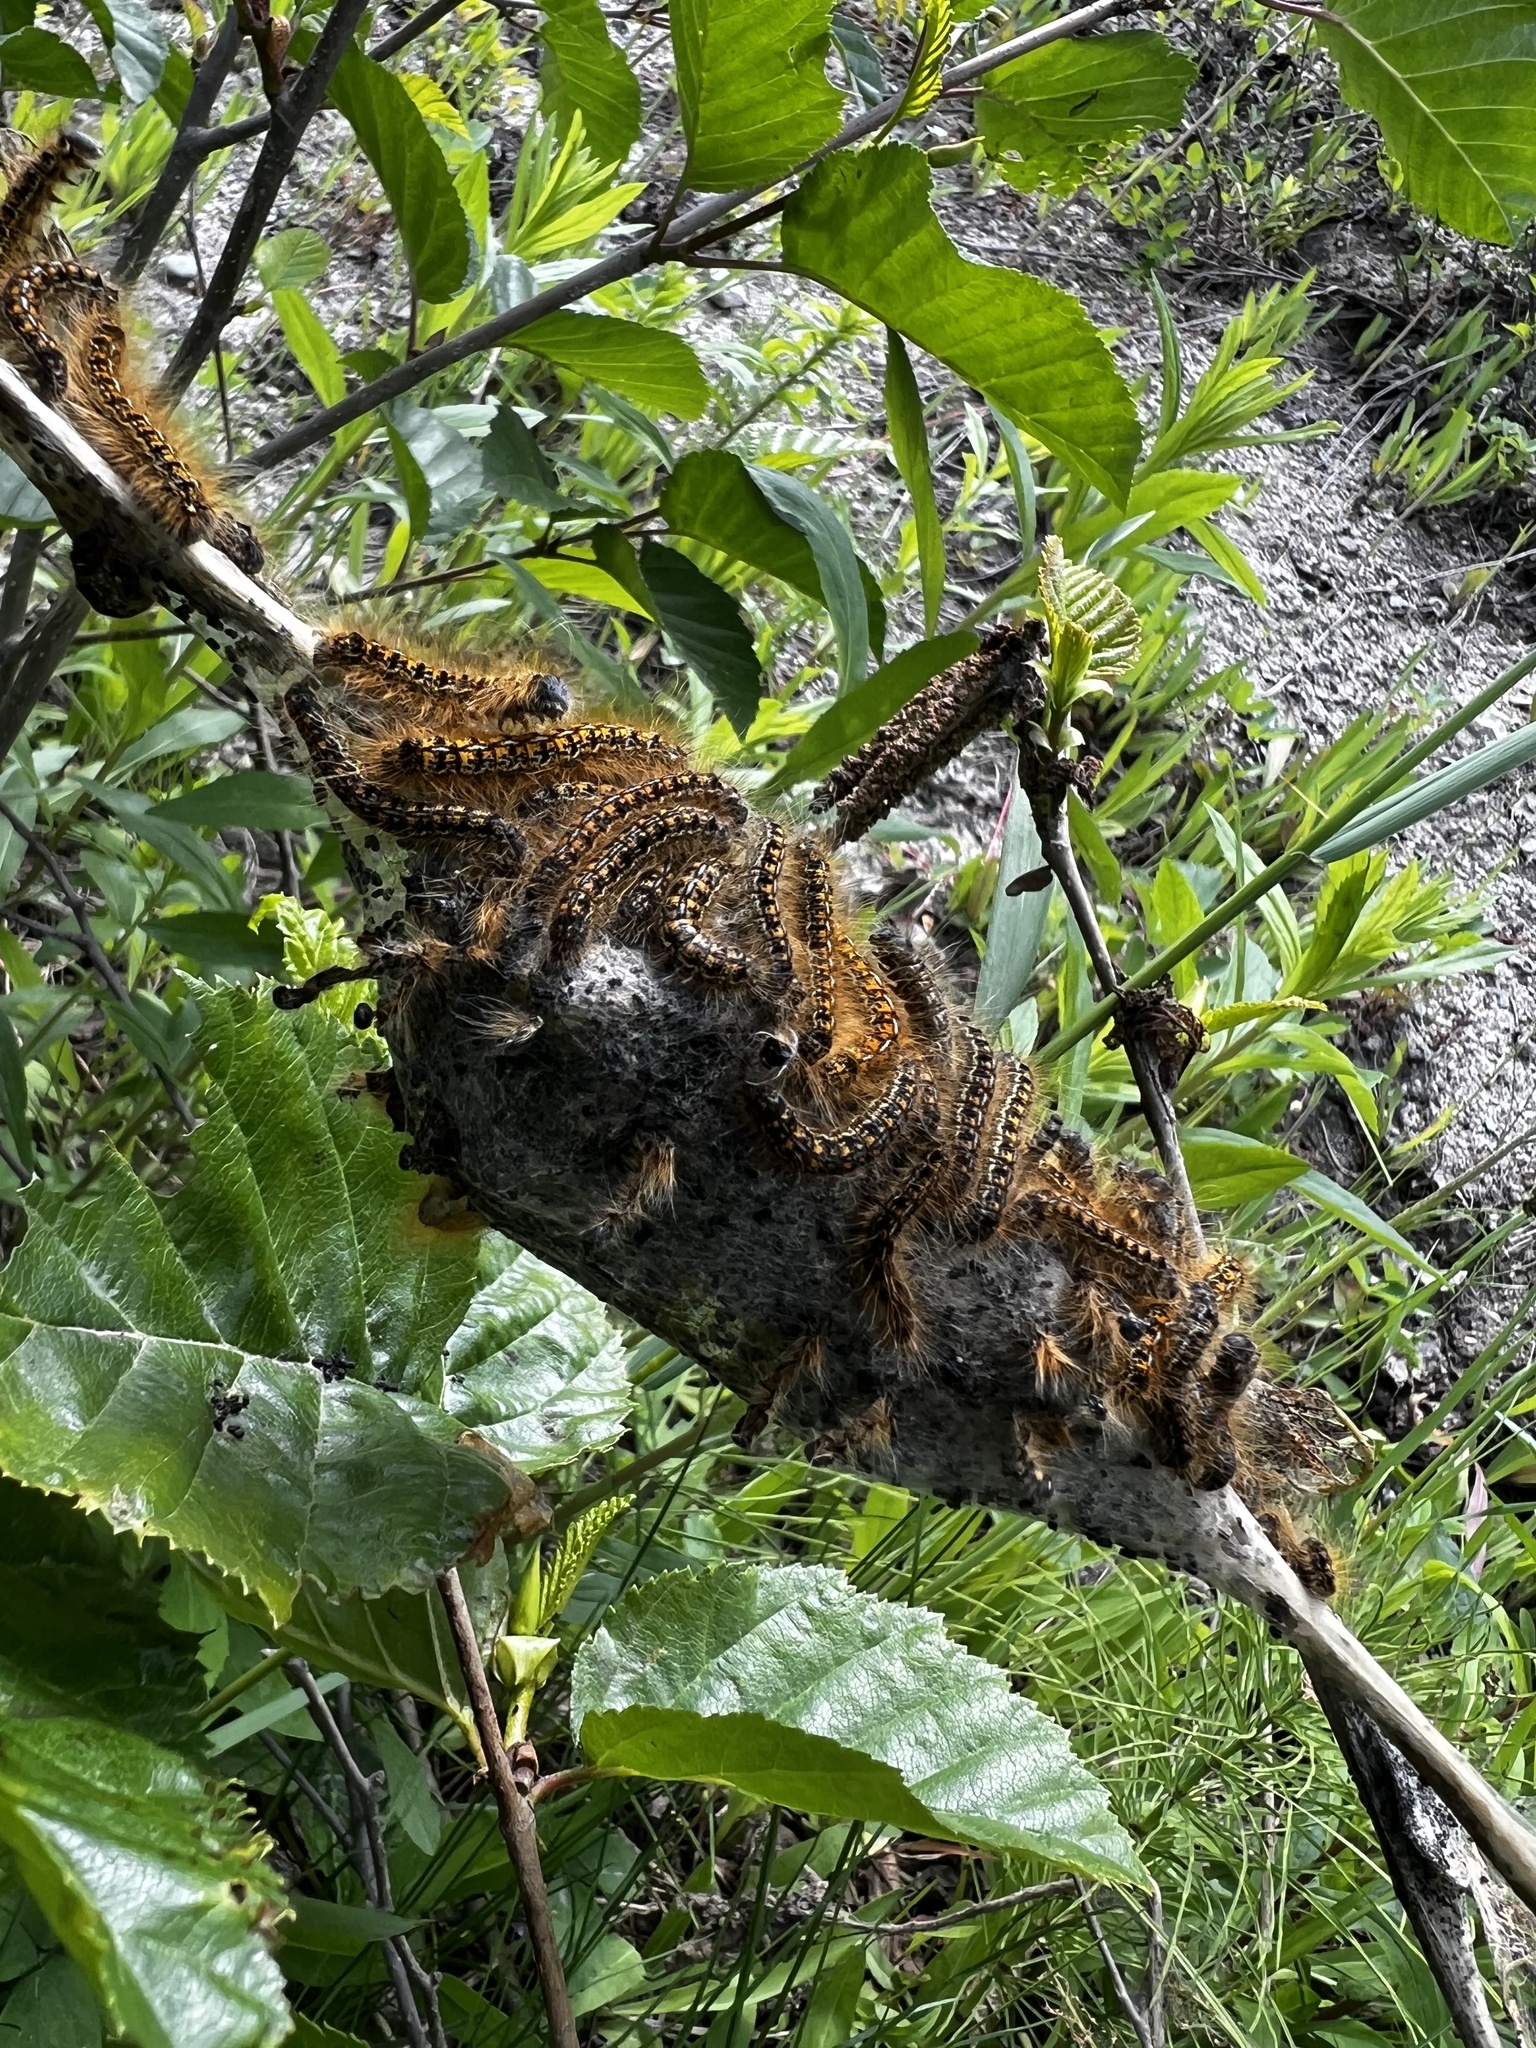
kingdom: Animalia
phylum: Arthropoda
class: Insecta
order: Lepidoptera
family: Lasiocampidae
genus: Malacosoma
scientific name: Malacosoma californica
